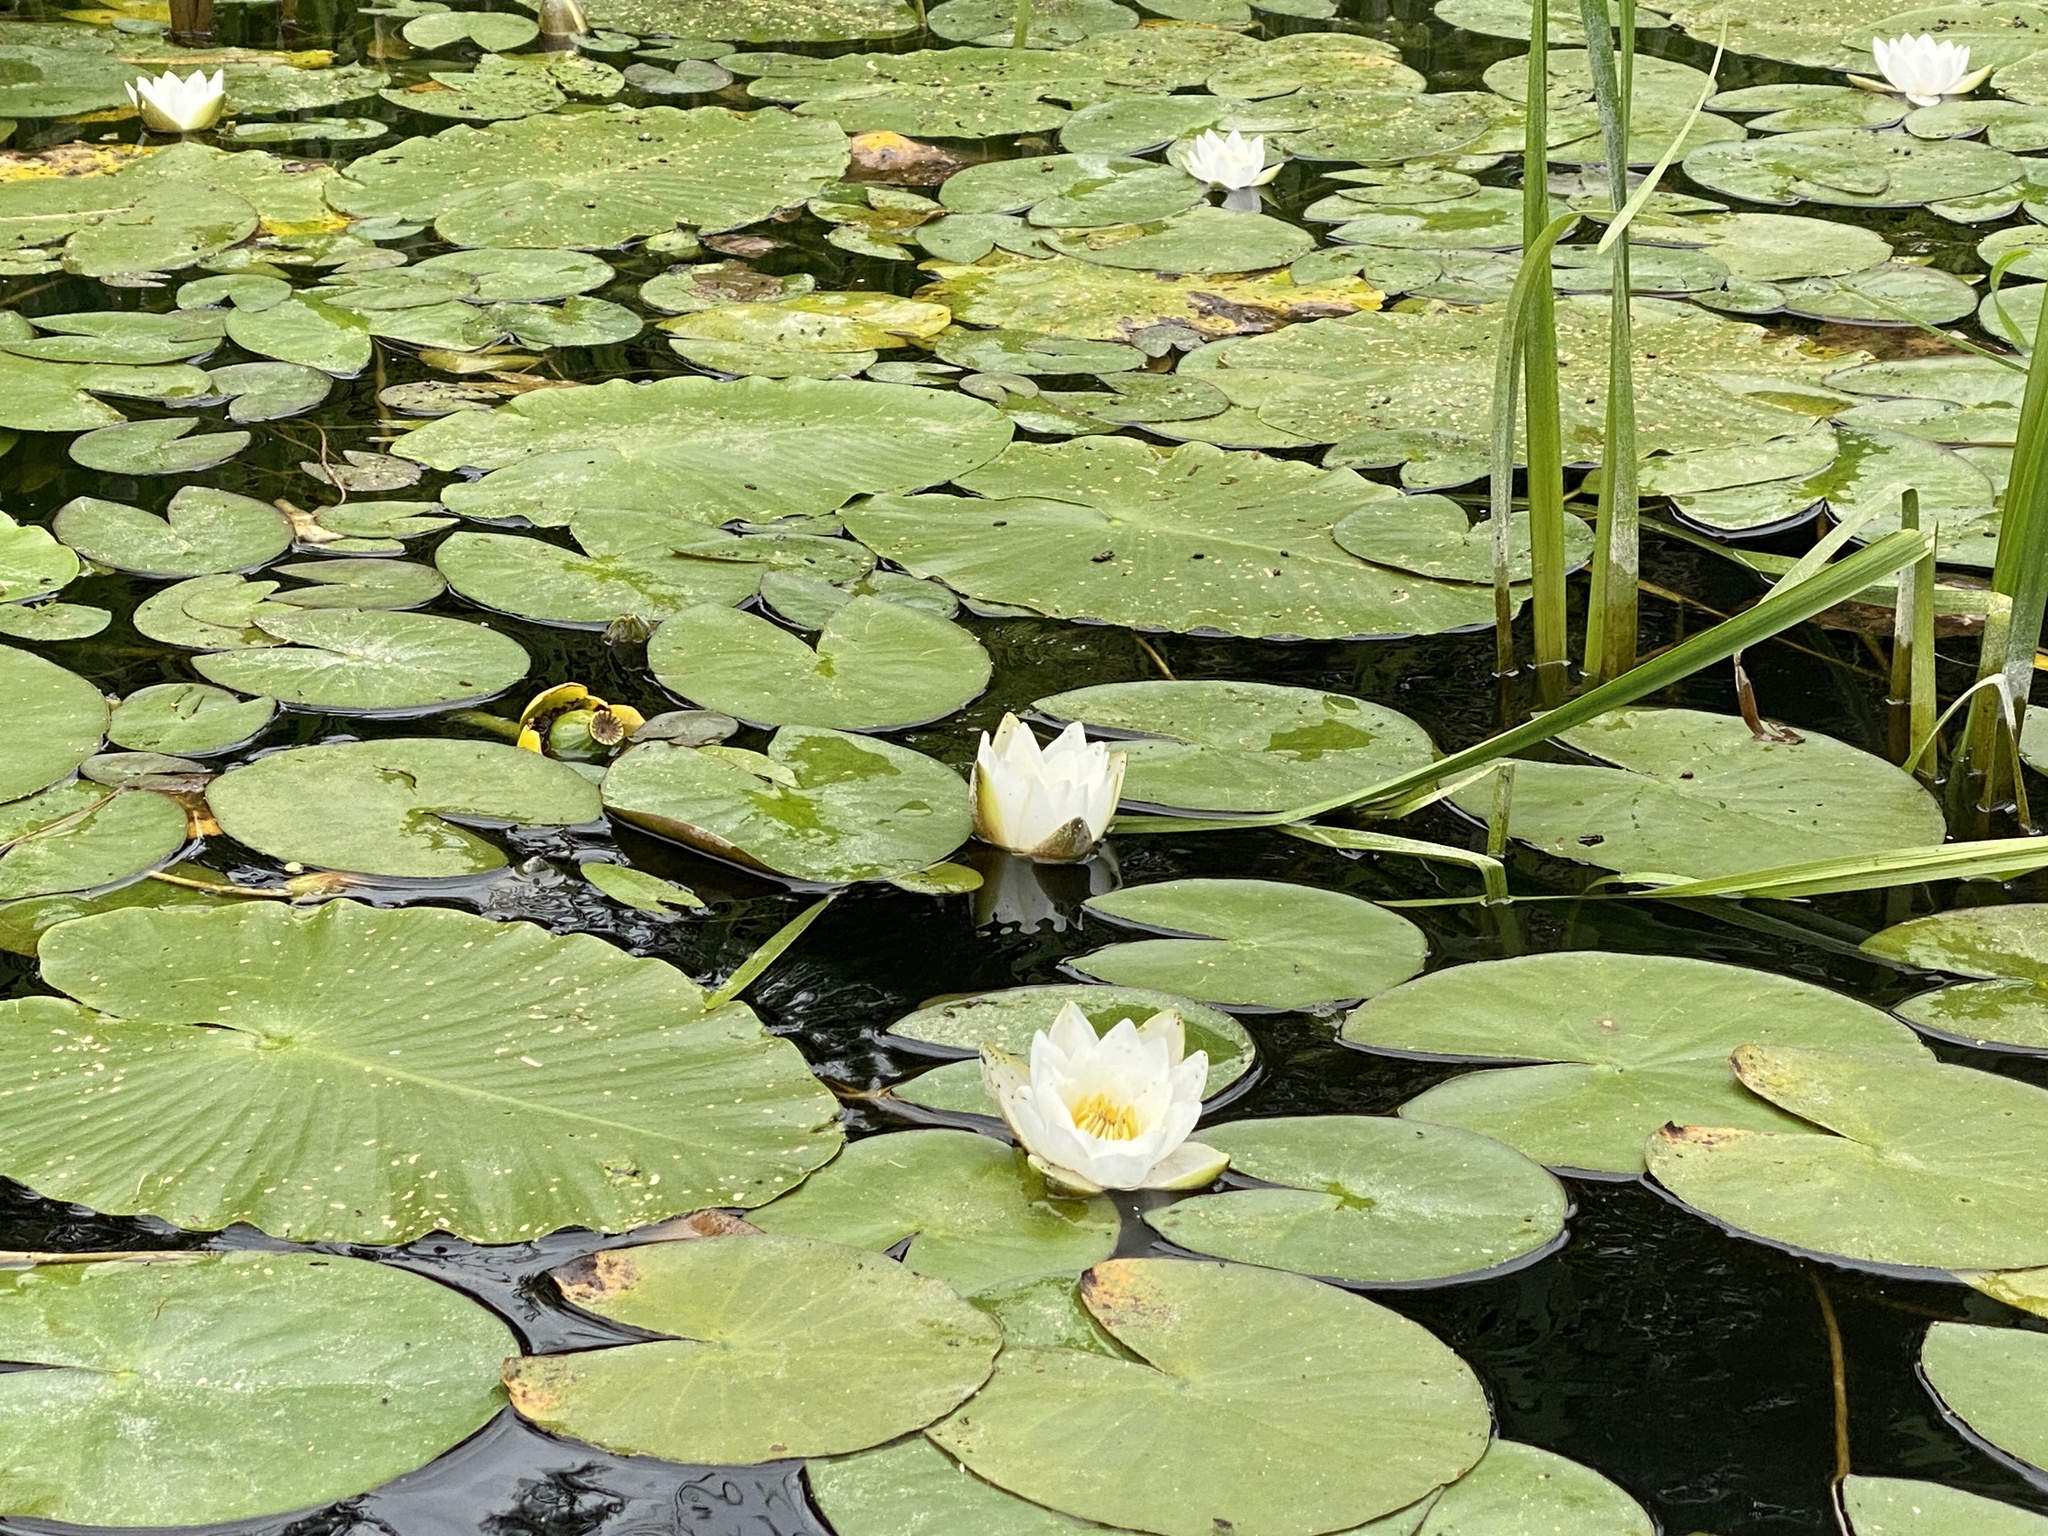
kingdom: Plantae
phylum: Tracheophyta
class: Magnoliopsida
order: Nymphaeales
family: Nymphaeaceae
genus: Nymphaea
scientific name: Nymphaea candida
